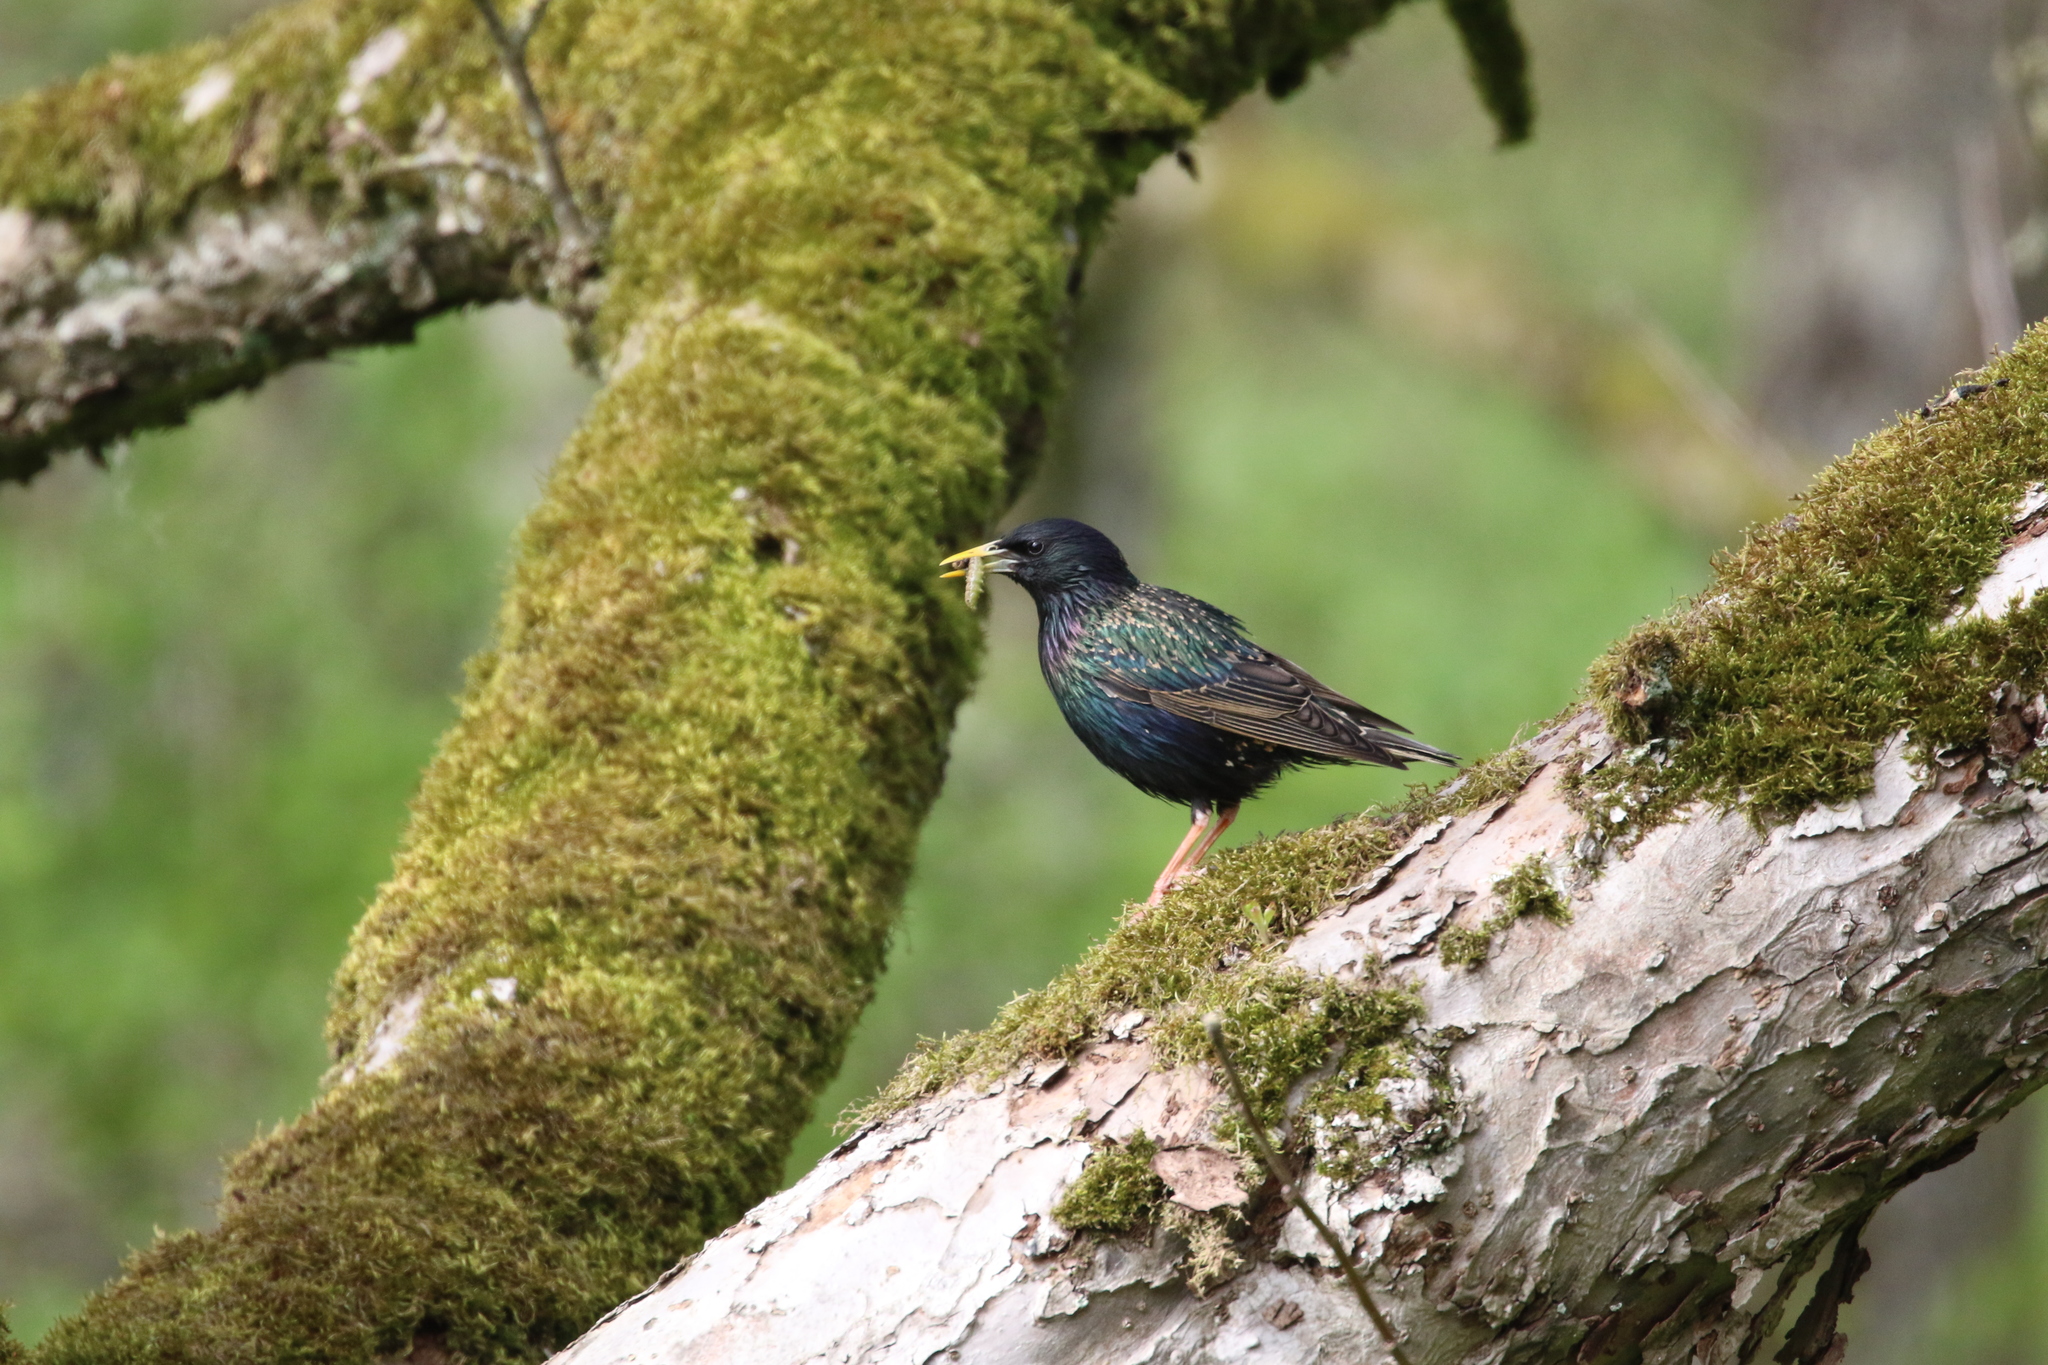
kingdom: Animalia
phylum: Chordata
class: Aves
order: Passeriformes
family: Sturnidae
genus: Sturnus
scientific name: Sturnus vulgaris
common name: Common starling
